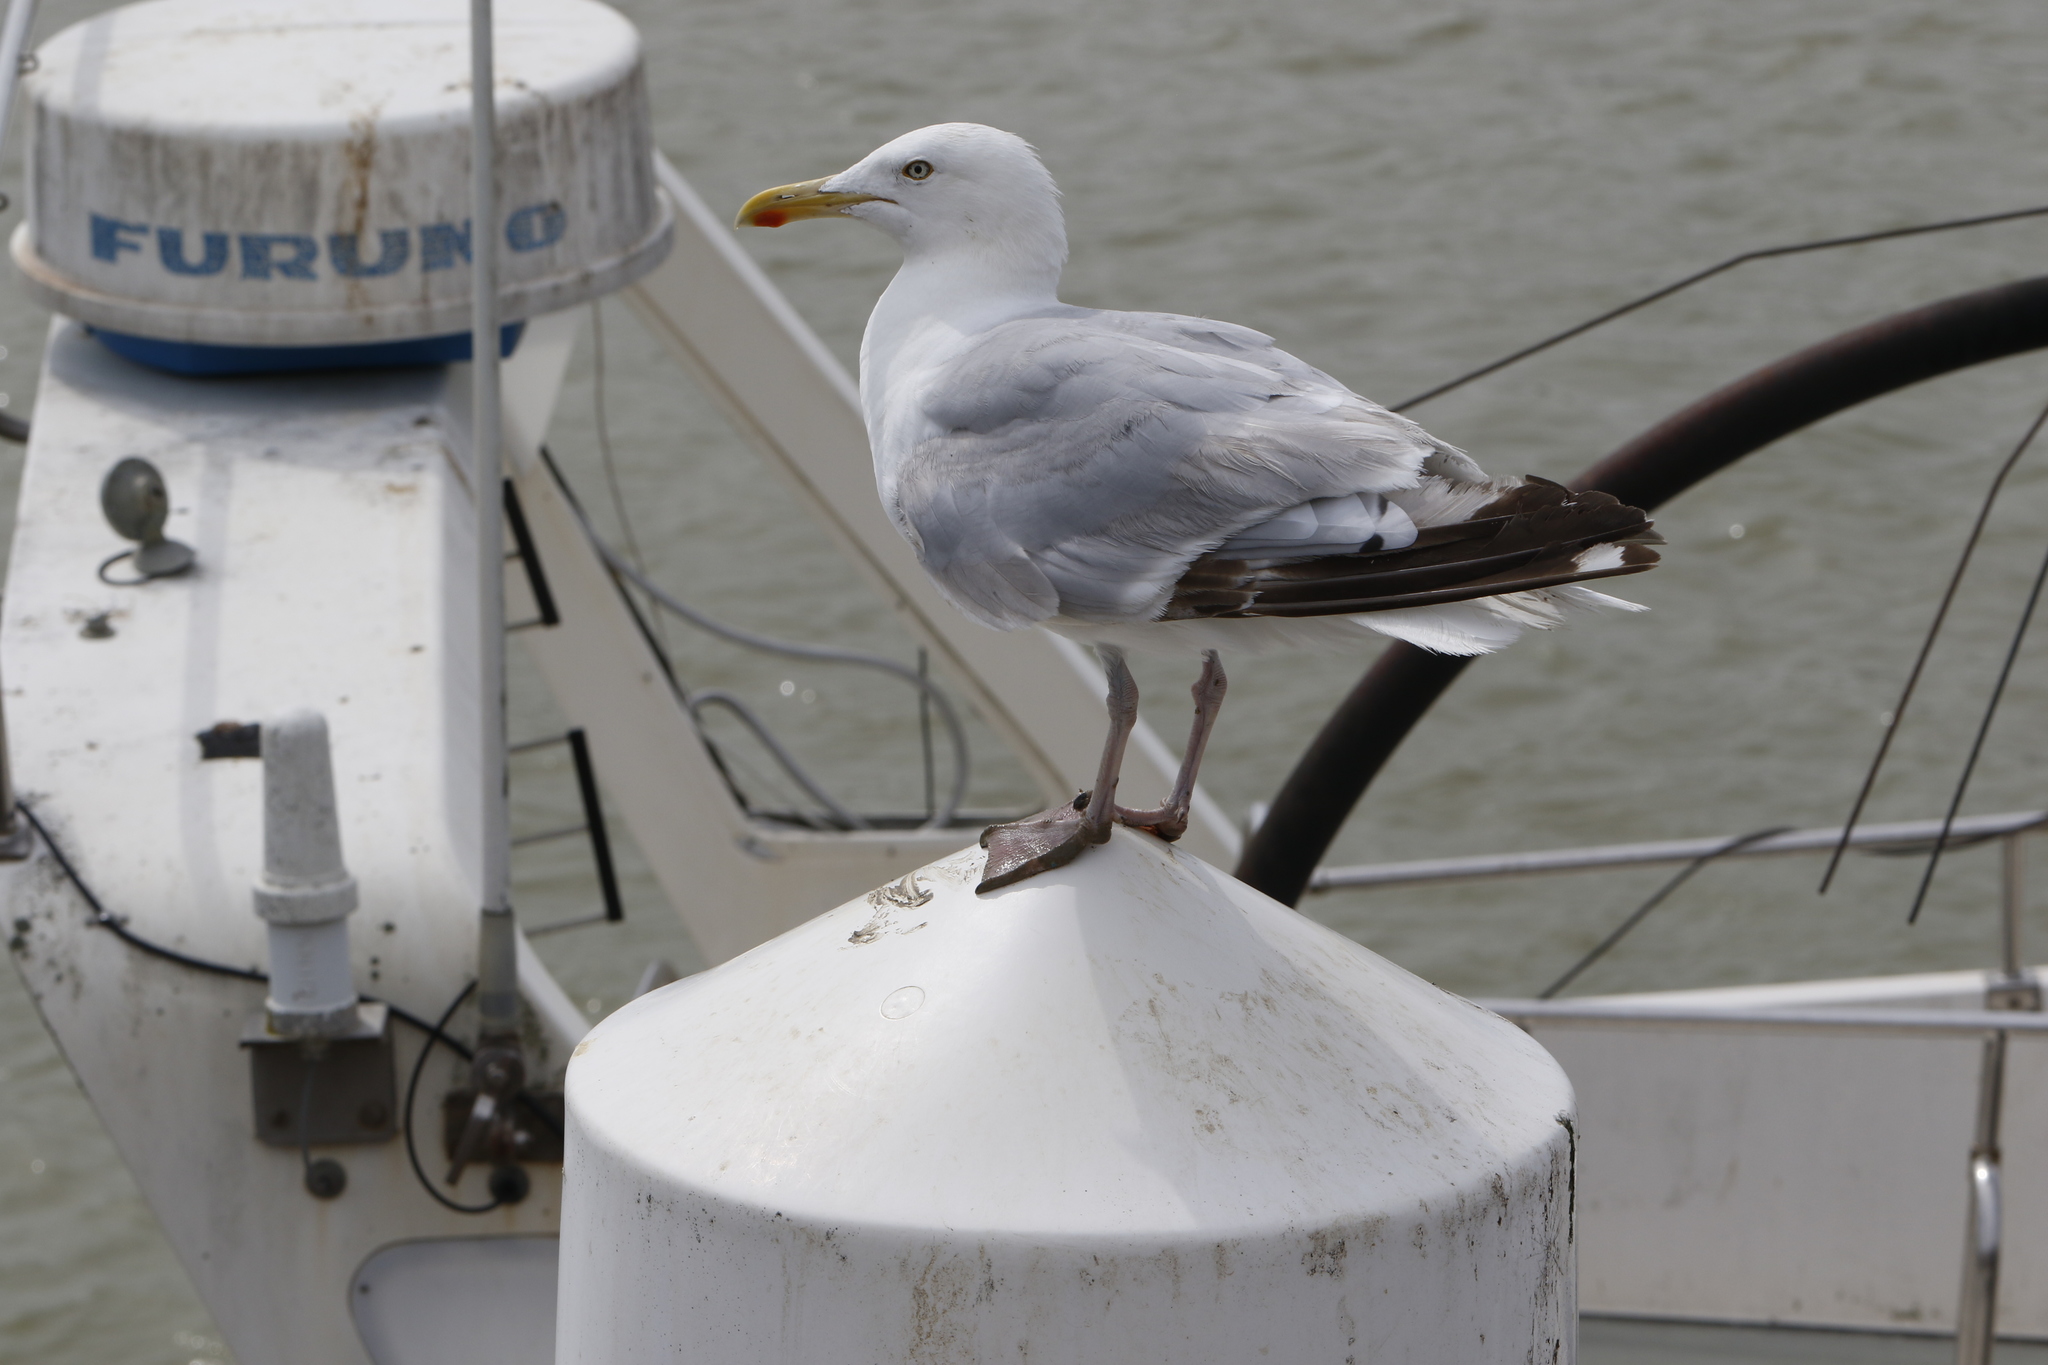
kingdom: Animalia
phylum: Chordata
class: Aves
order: Charadriiformes
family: Laridae
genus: Larus
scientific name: Larus argentatus
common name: Herring gull
